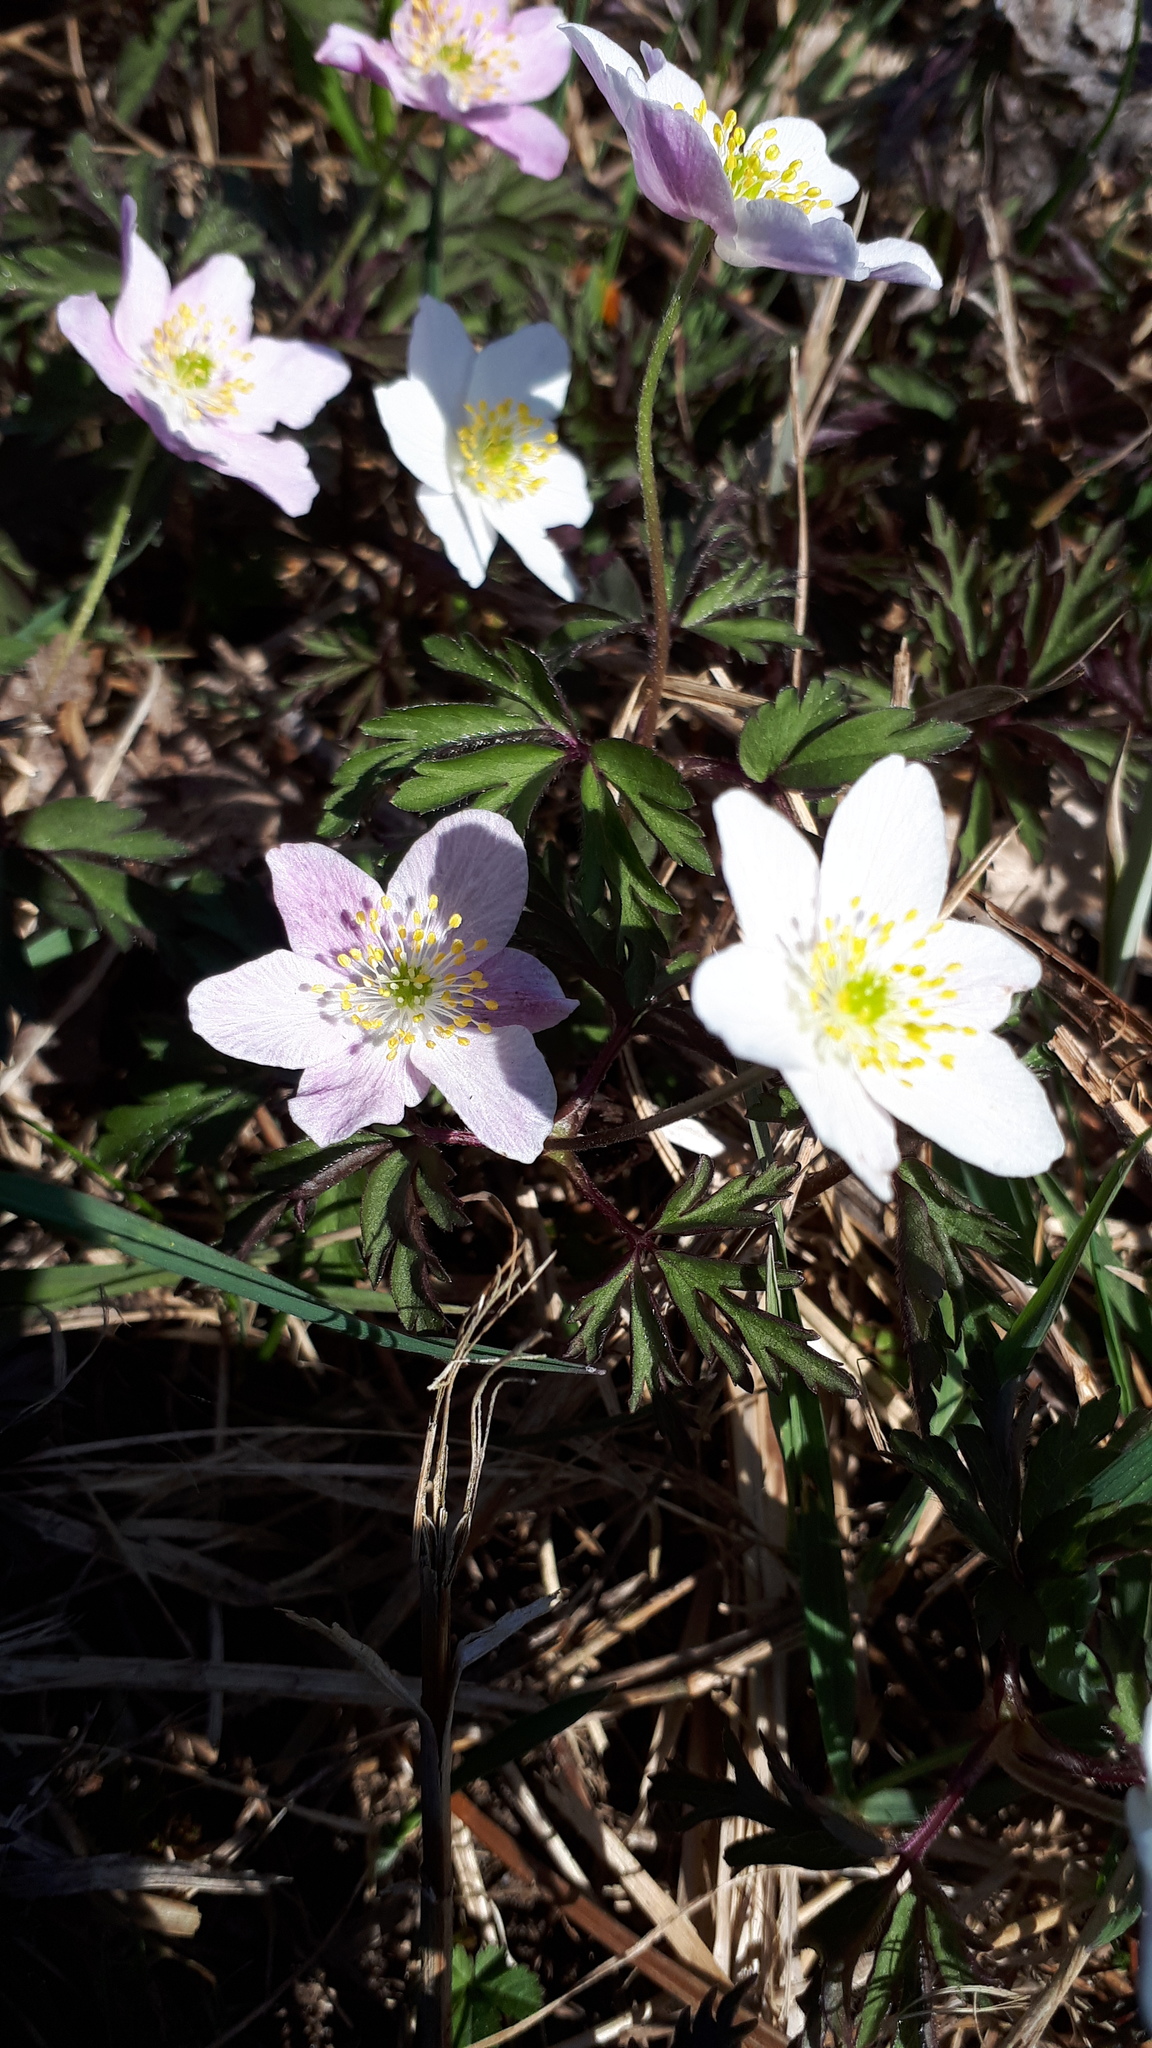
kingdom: Plantae
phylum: Tracheophyta
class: Magnoliopsida
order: Ranunculales
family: Ranunculaceae
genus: Anemone
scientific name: Anemone nemorosa
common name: Wood anemone
